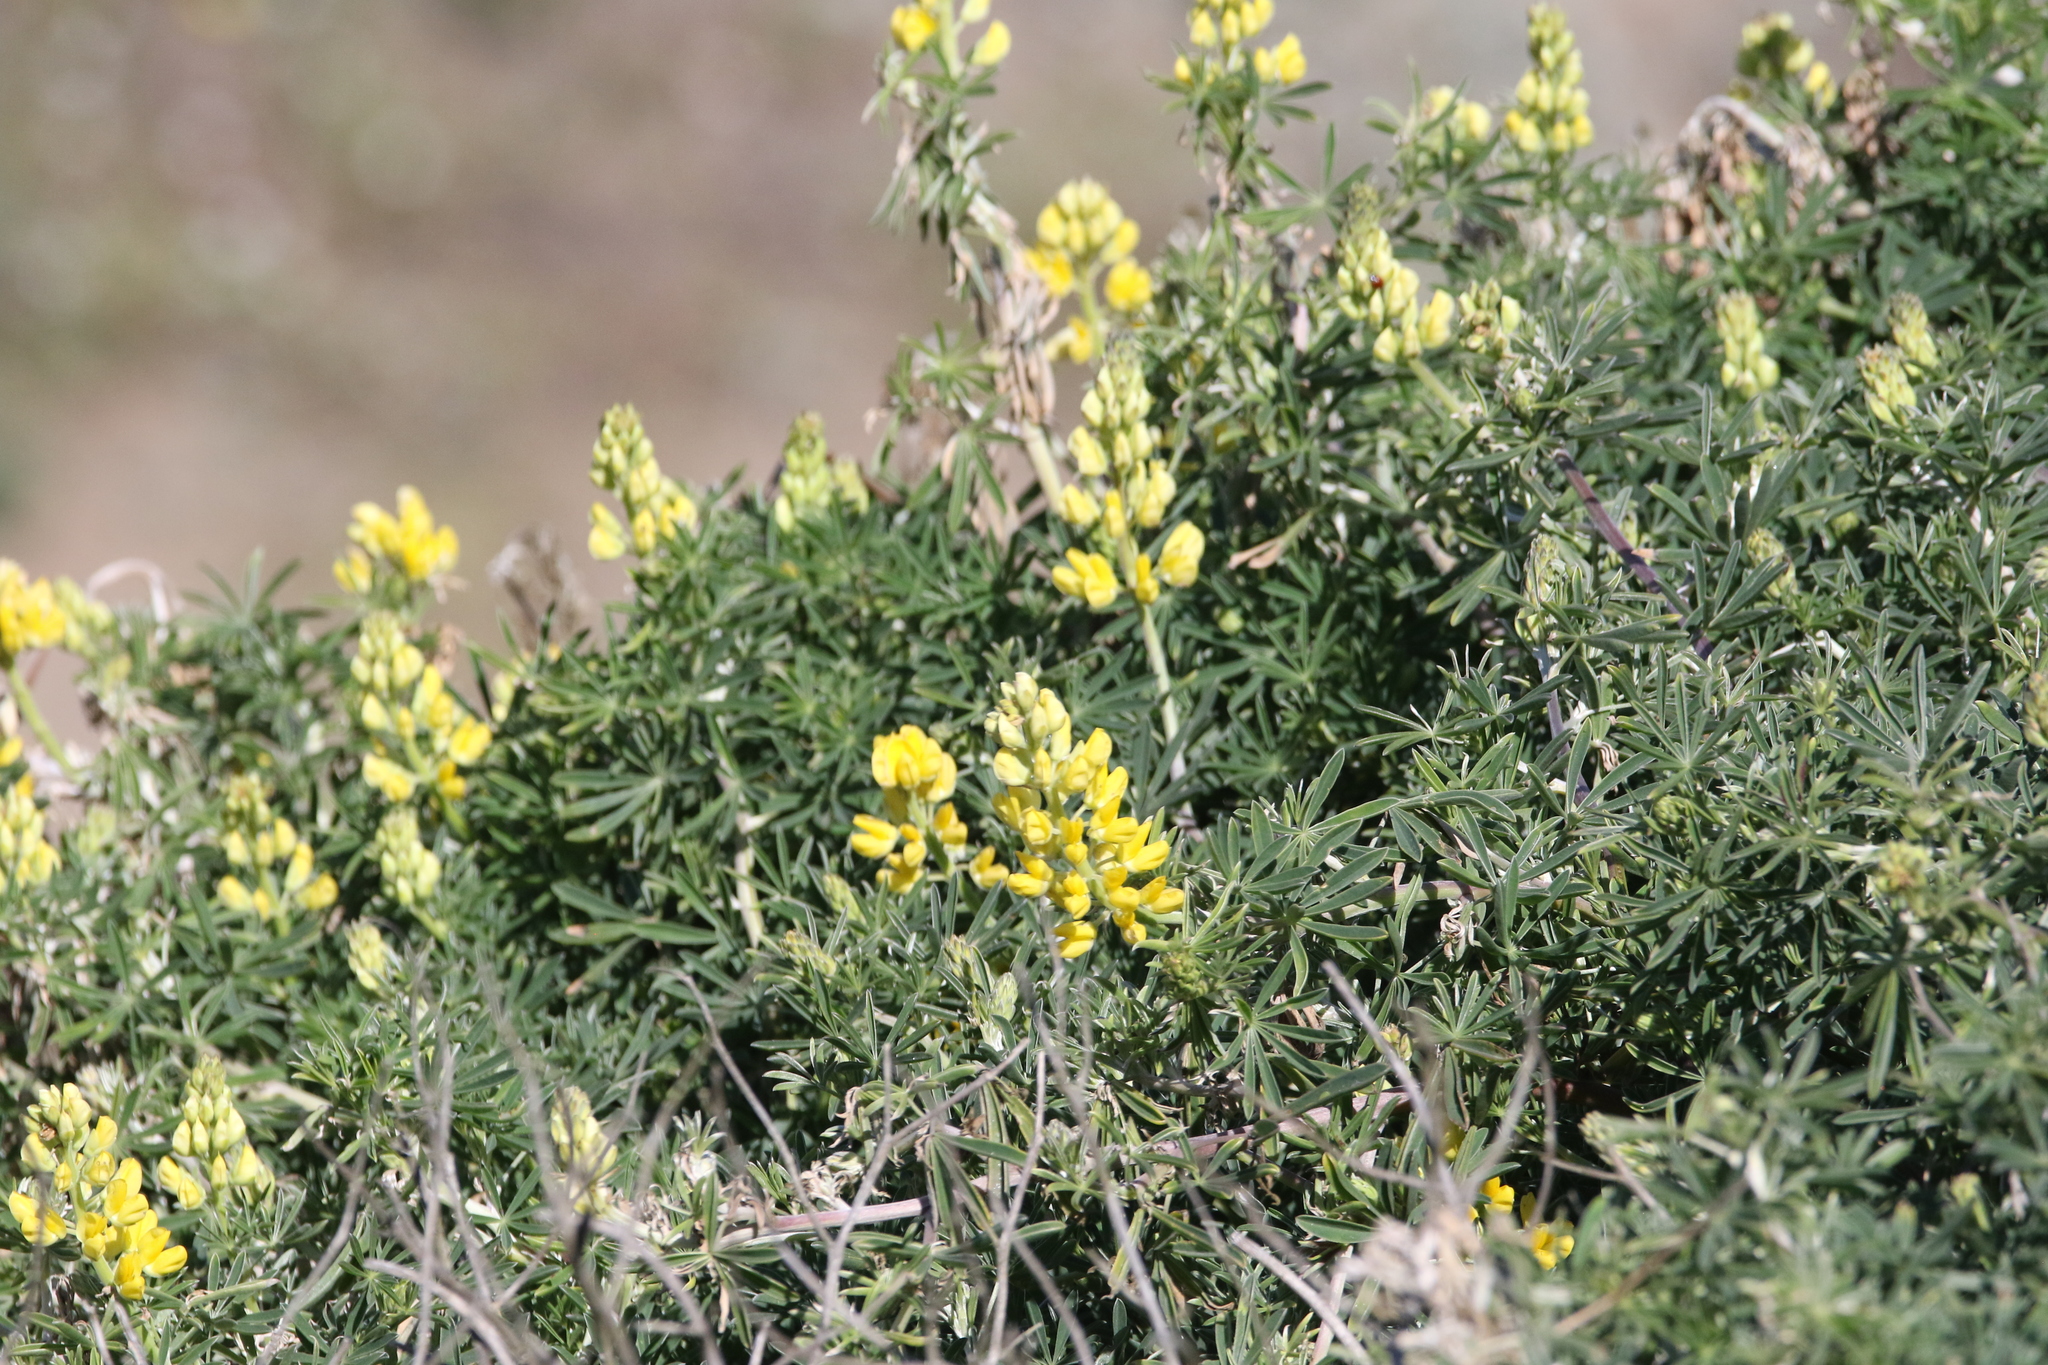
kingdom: Plantae
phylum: Tracheophyta
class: Magnoliopsida
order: Fabales
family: Fabaceae
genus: Lupinus
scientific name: Lupinus arboreus
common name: Yellow bush lupine
